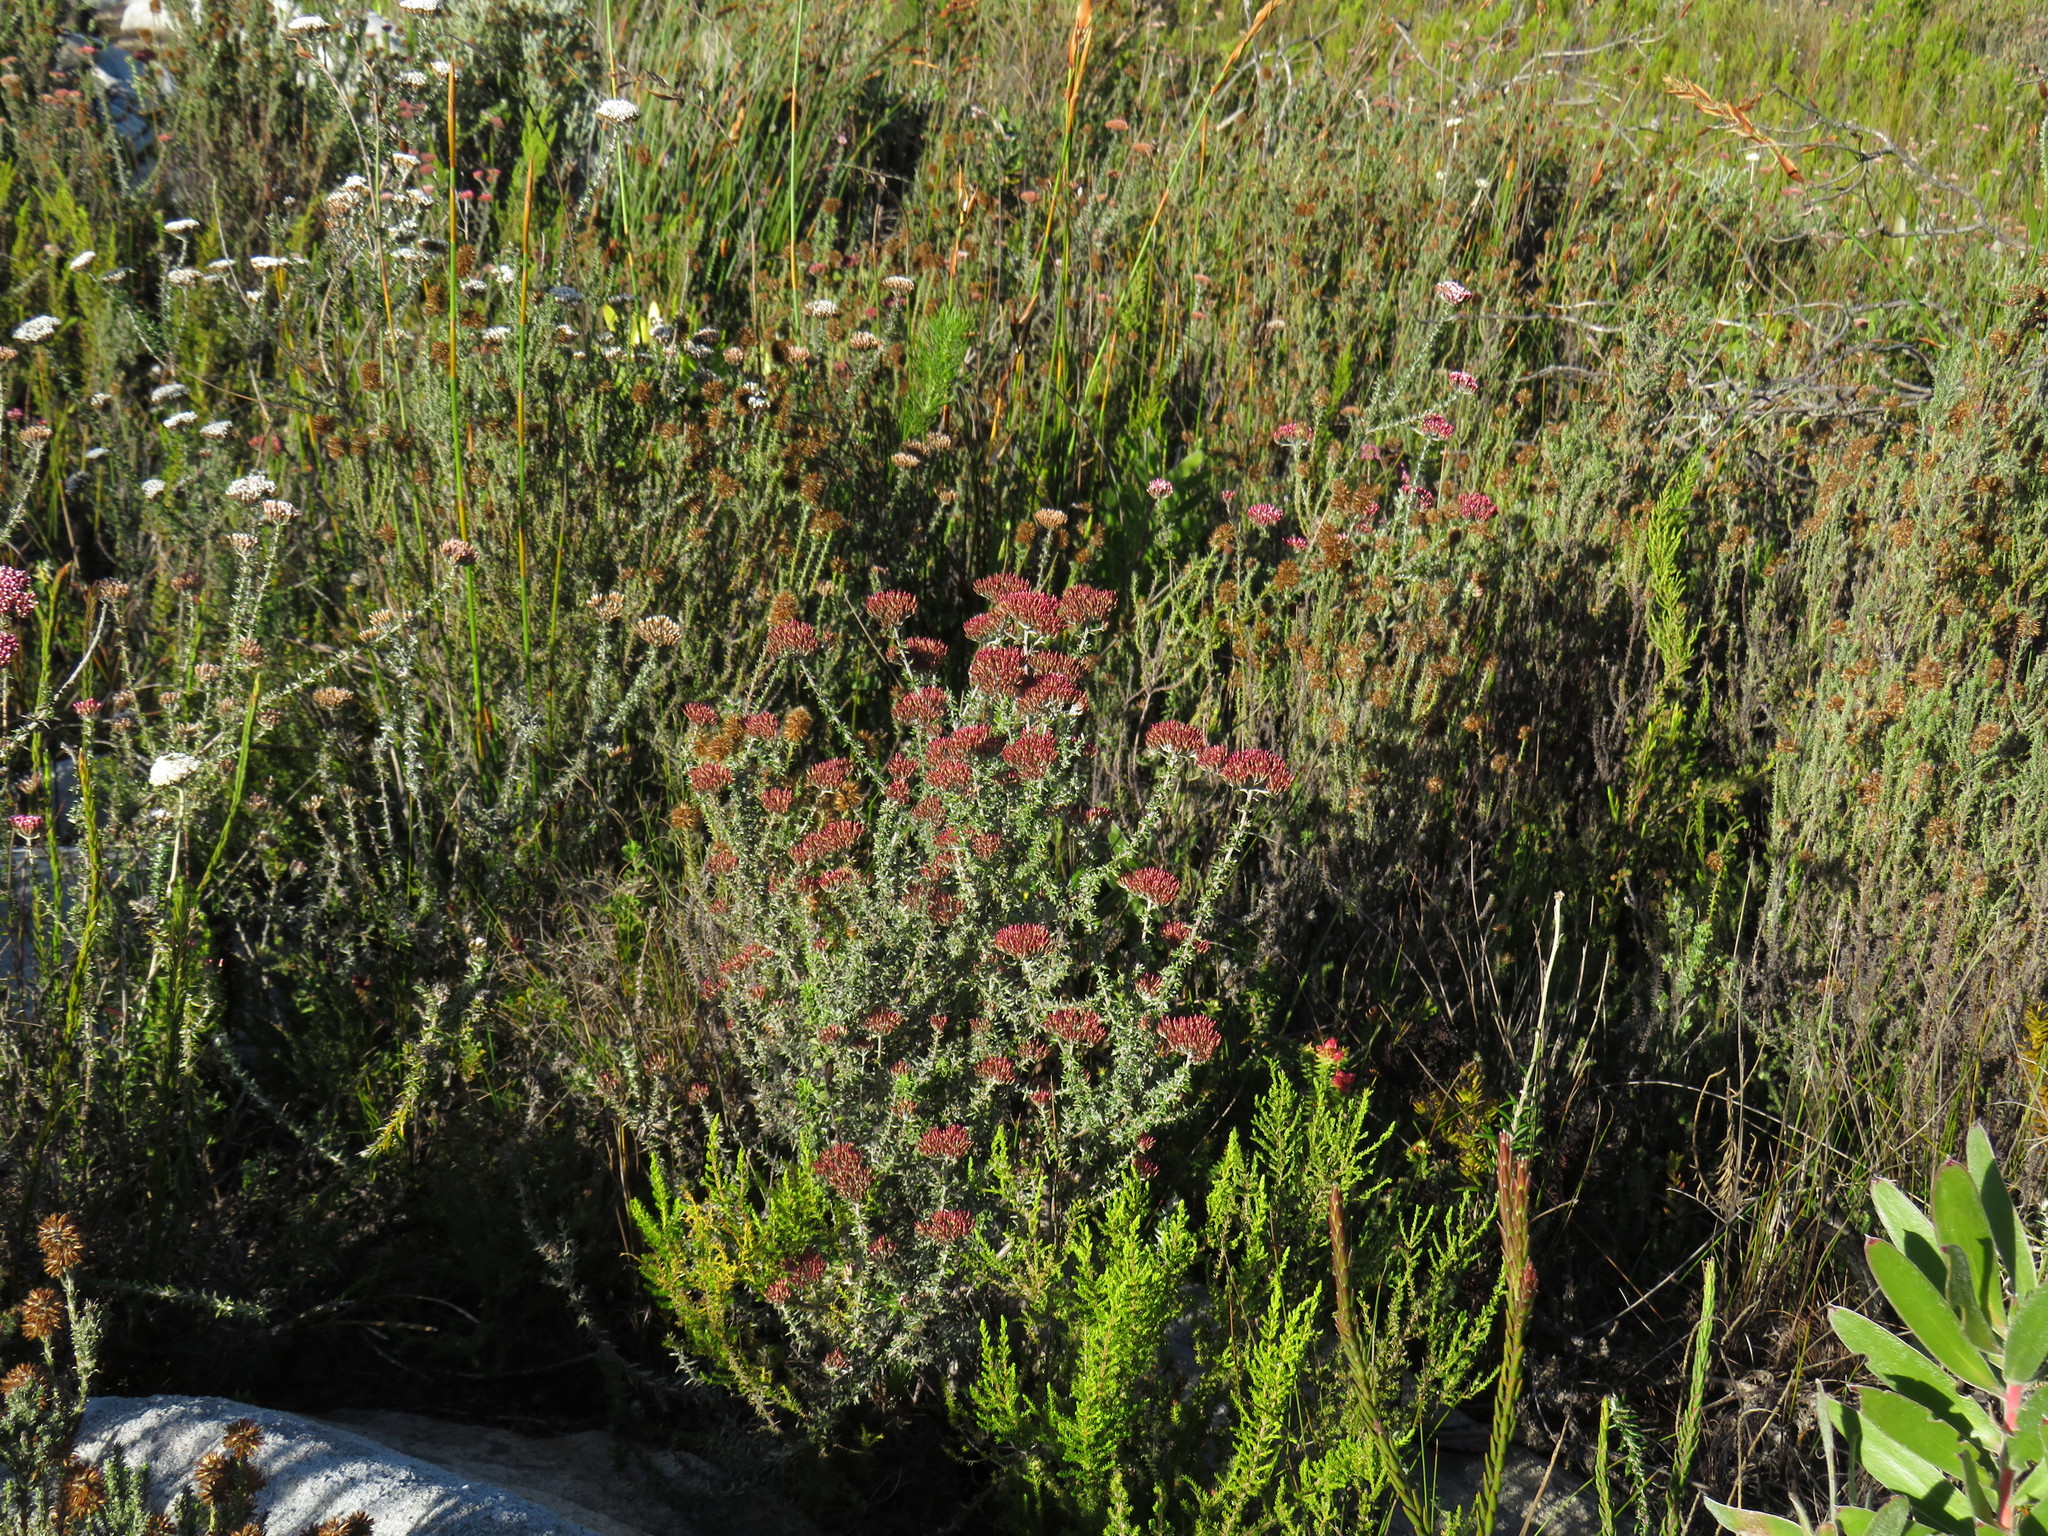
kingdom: Plantae
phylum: Tracheophyta
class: Magnoliopsida
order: Asterales
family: Asteraceae
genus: Metalasia
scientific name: Metalasia densa
